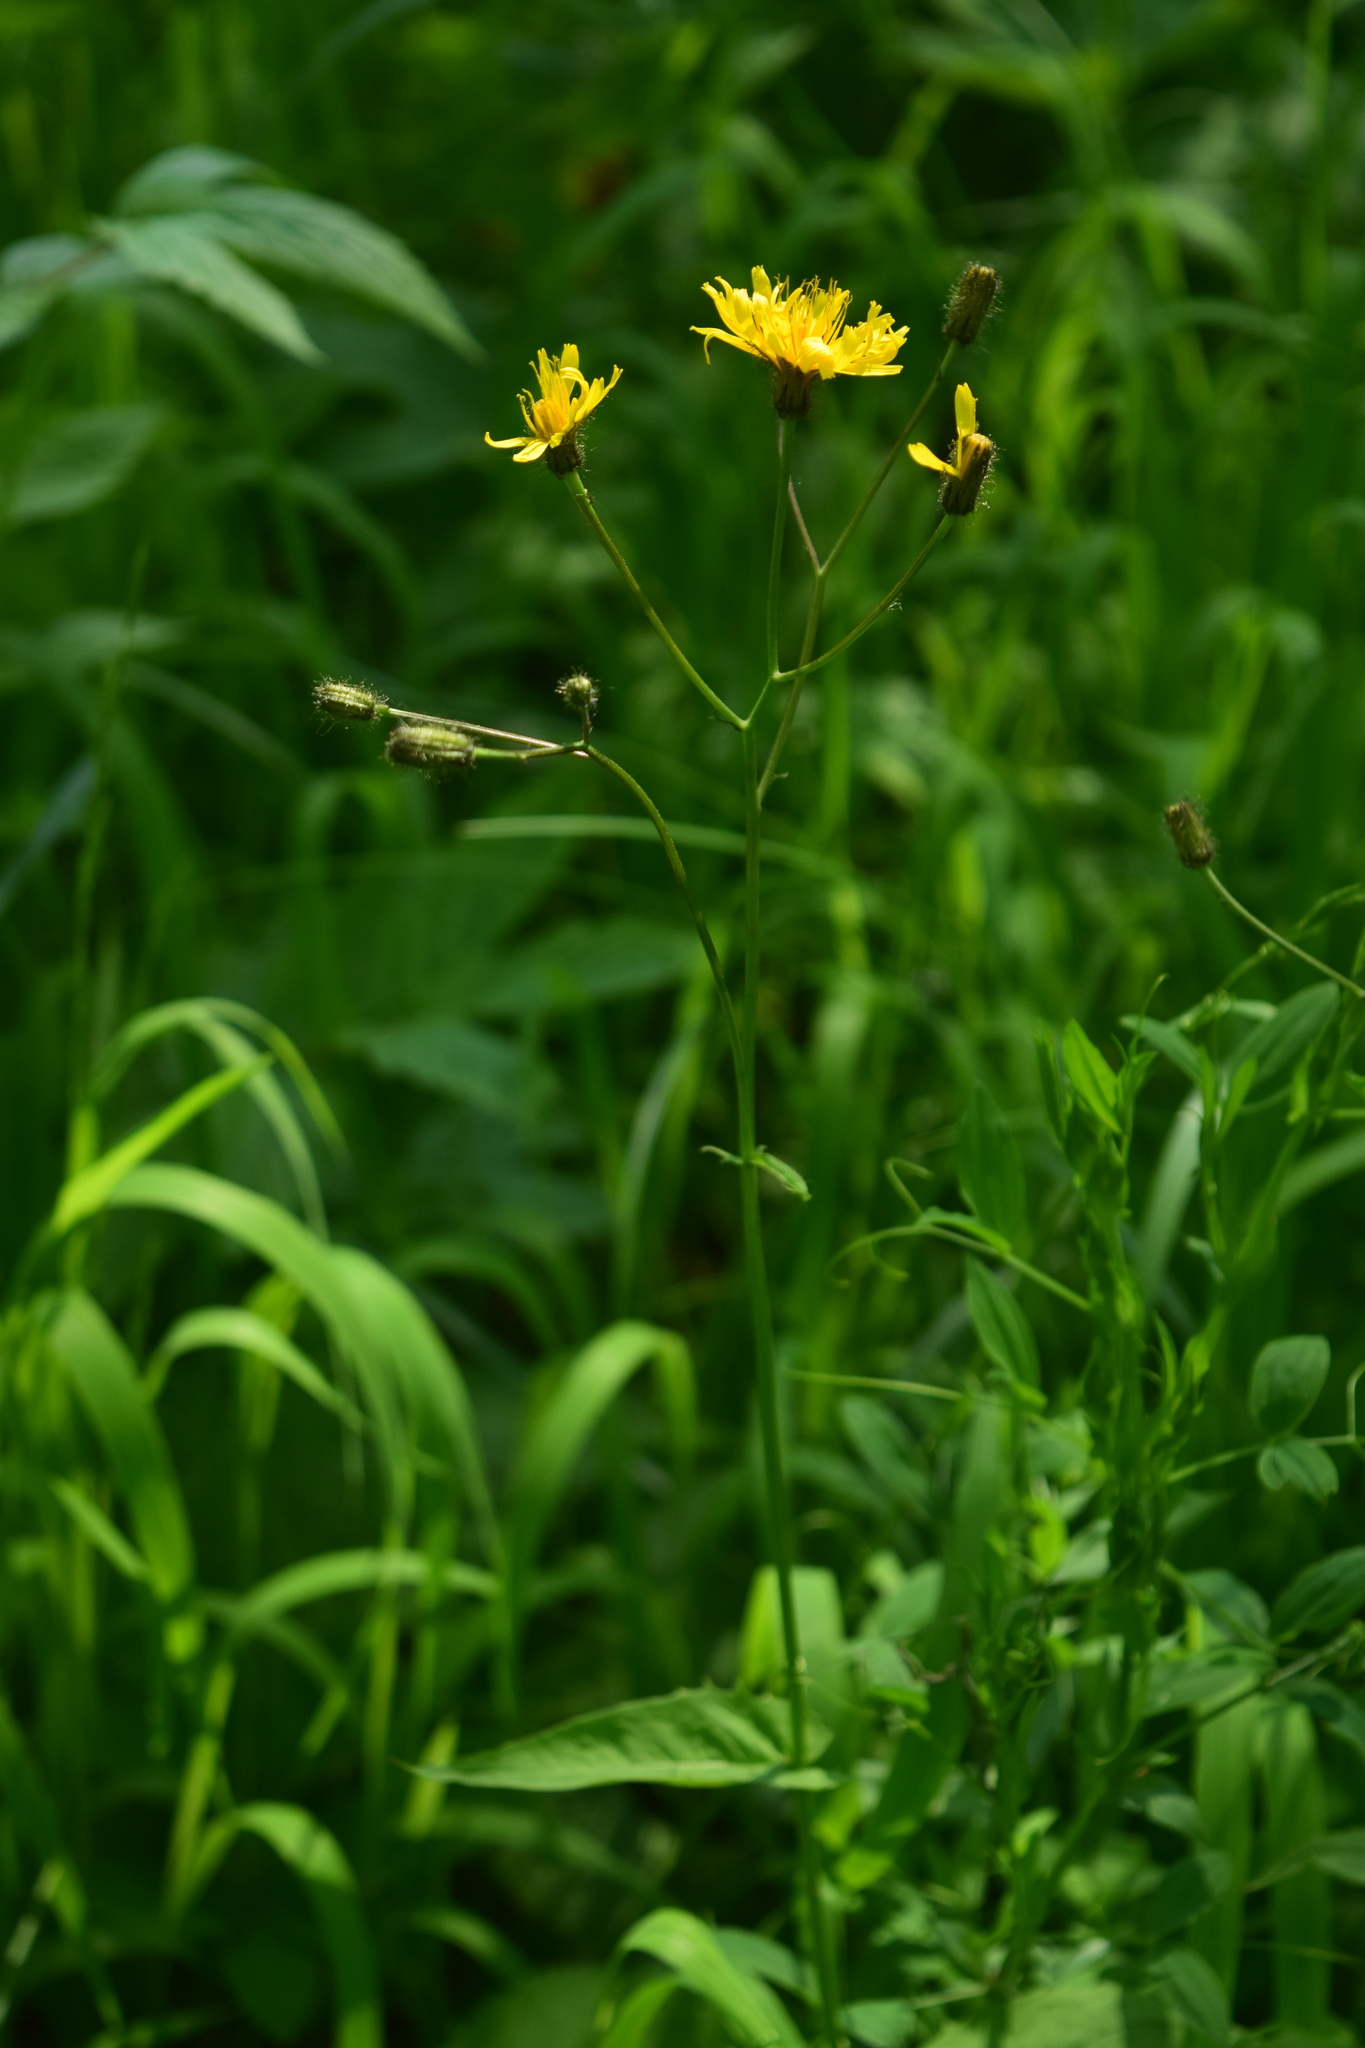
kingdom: Plantae
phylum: Tracheophyta
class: Magnoliopsida
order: Asterales
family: Asteraceae
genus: Crepis
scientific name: Crepis paludosa
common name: Marsh hawk's-beard
